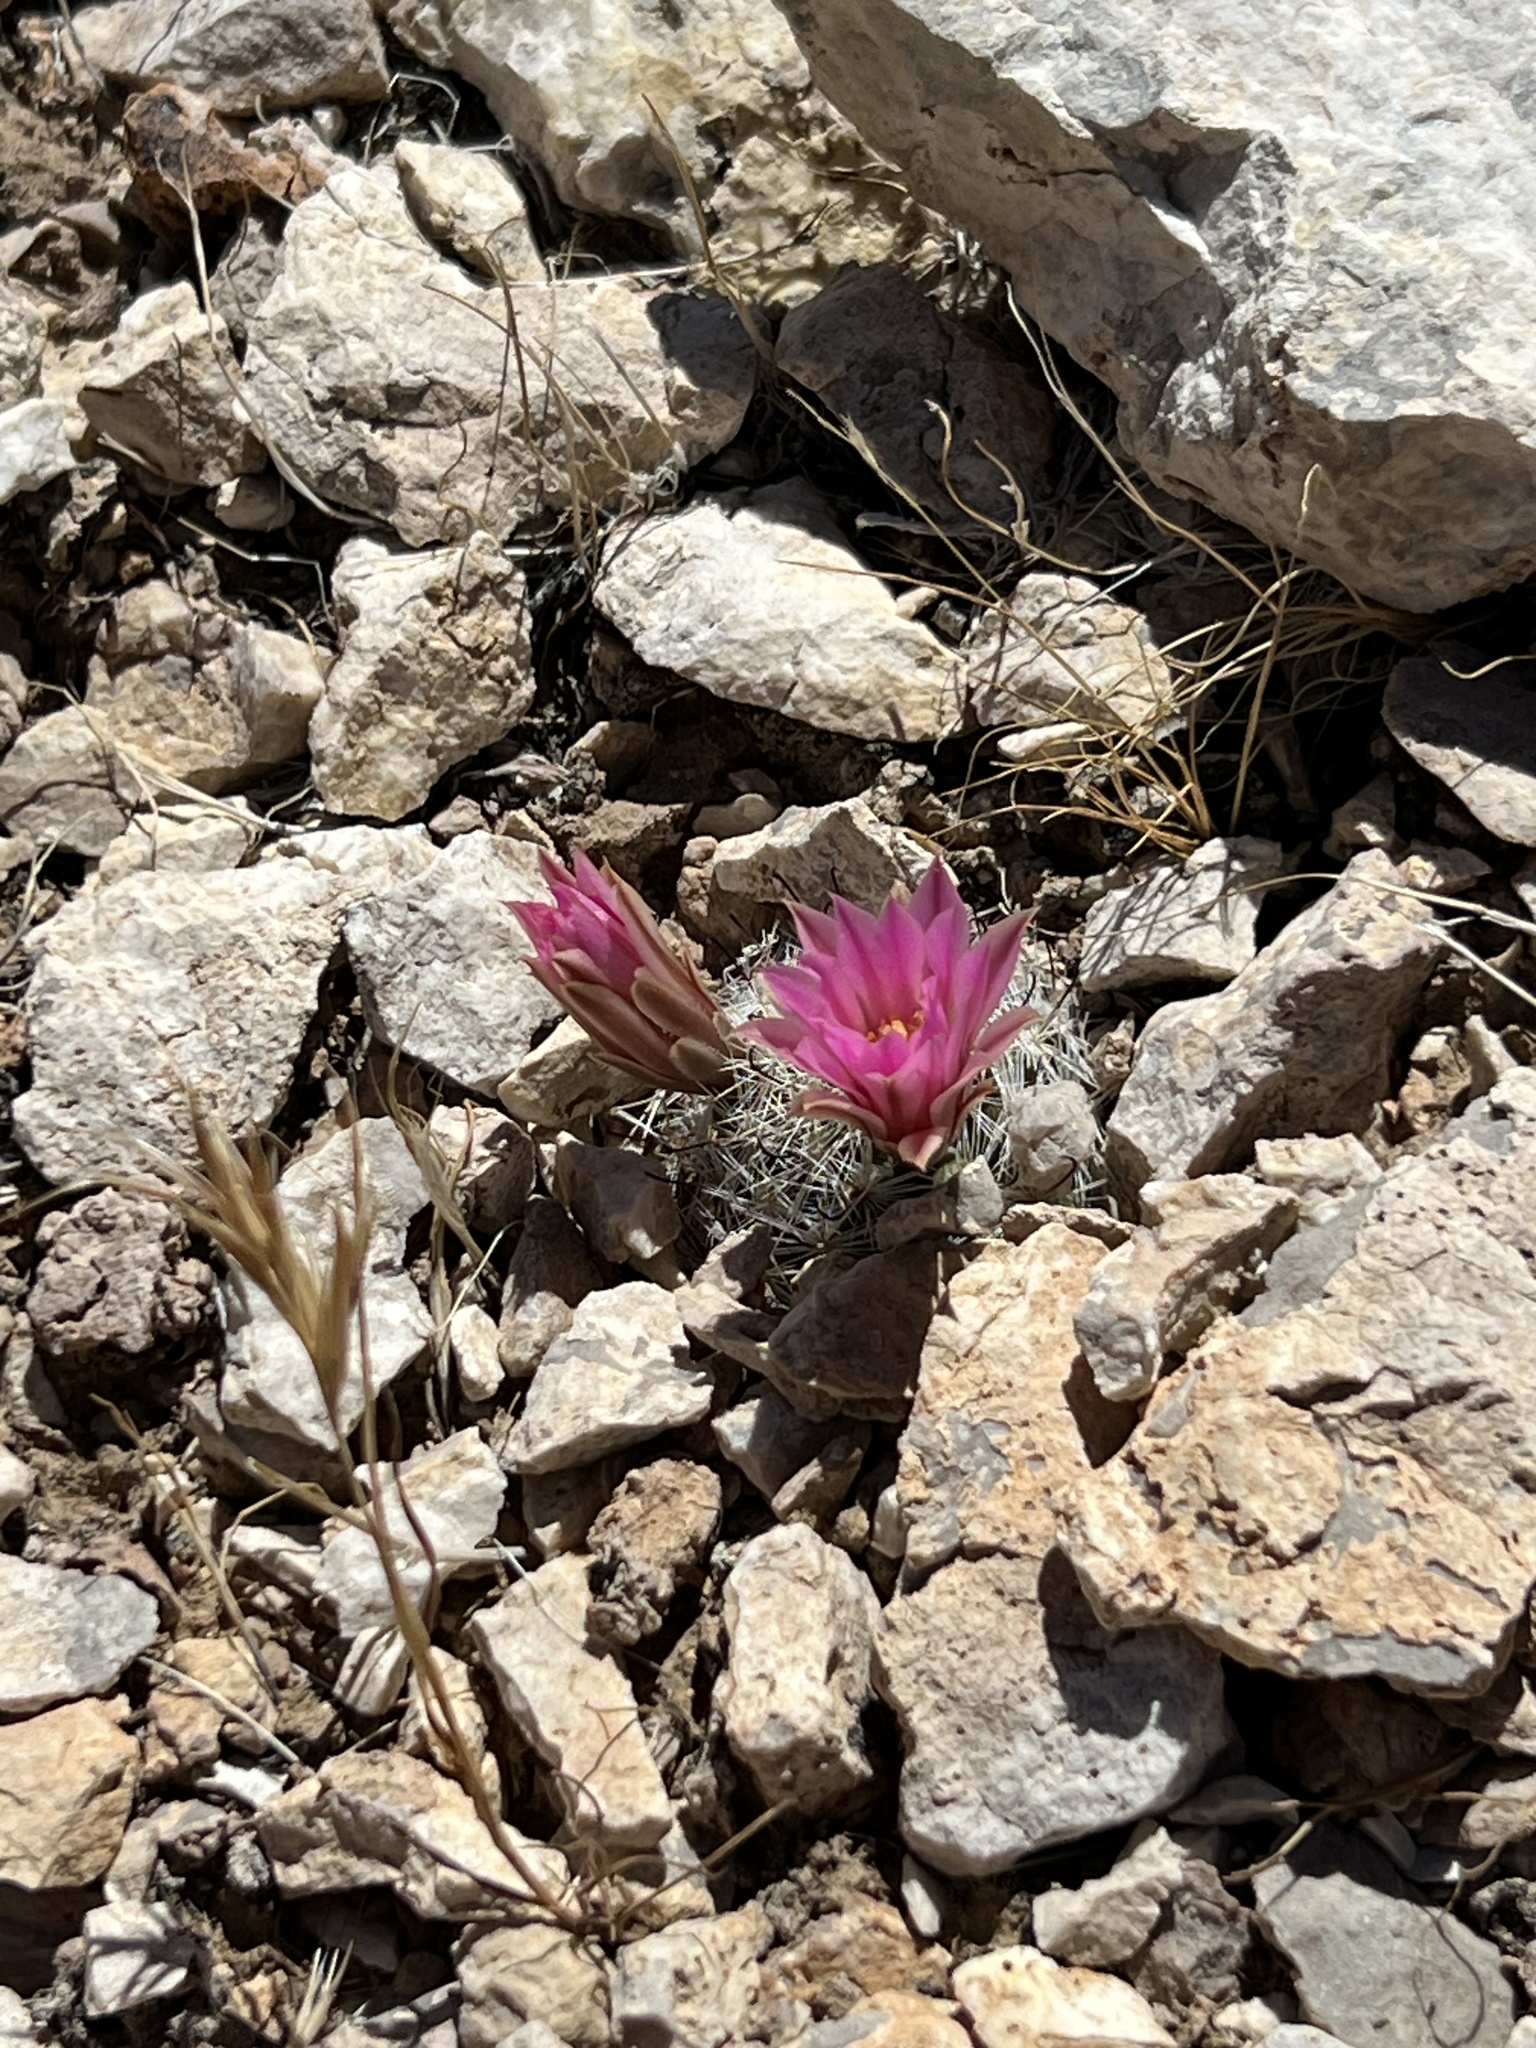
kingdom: Plantae
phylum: Tracheophyta
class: Magnoliopsida
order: Caryophyllales
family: Cactaceae
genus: Cochemiea
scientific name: Cochemiea tetrancistra
